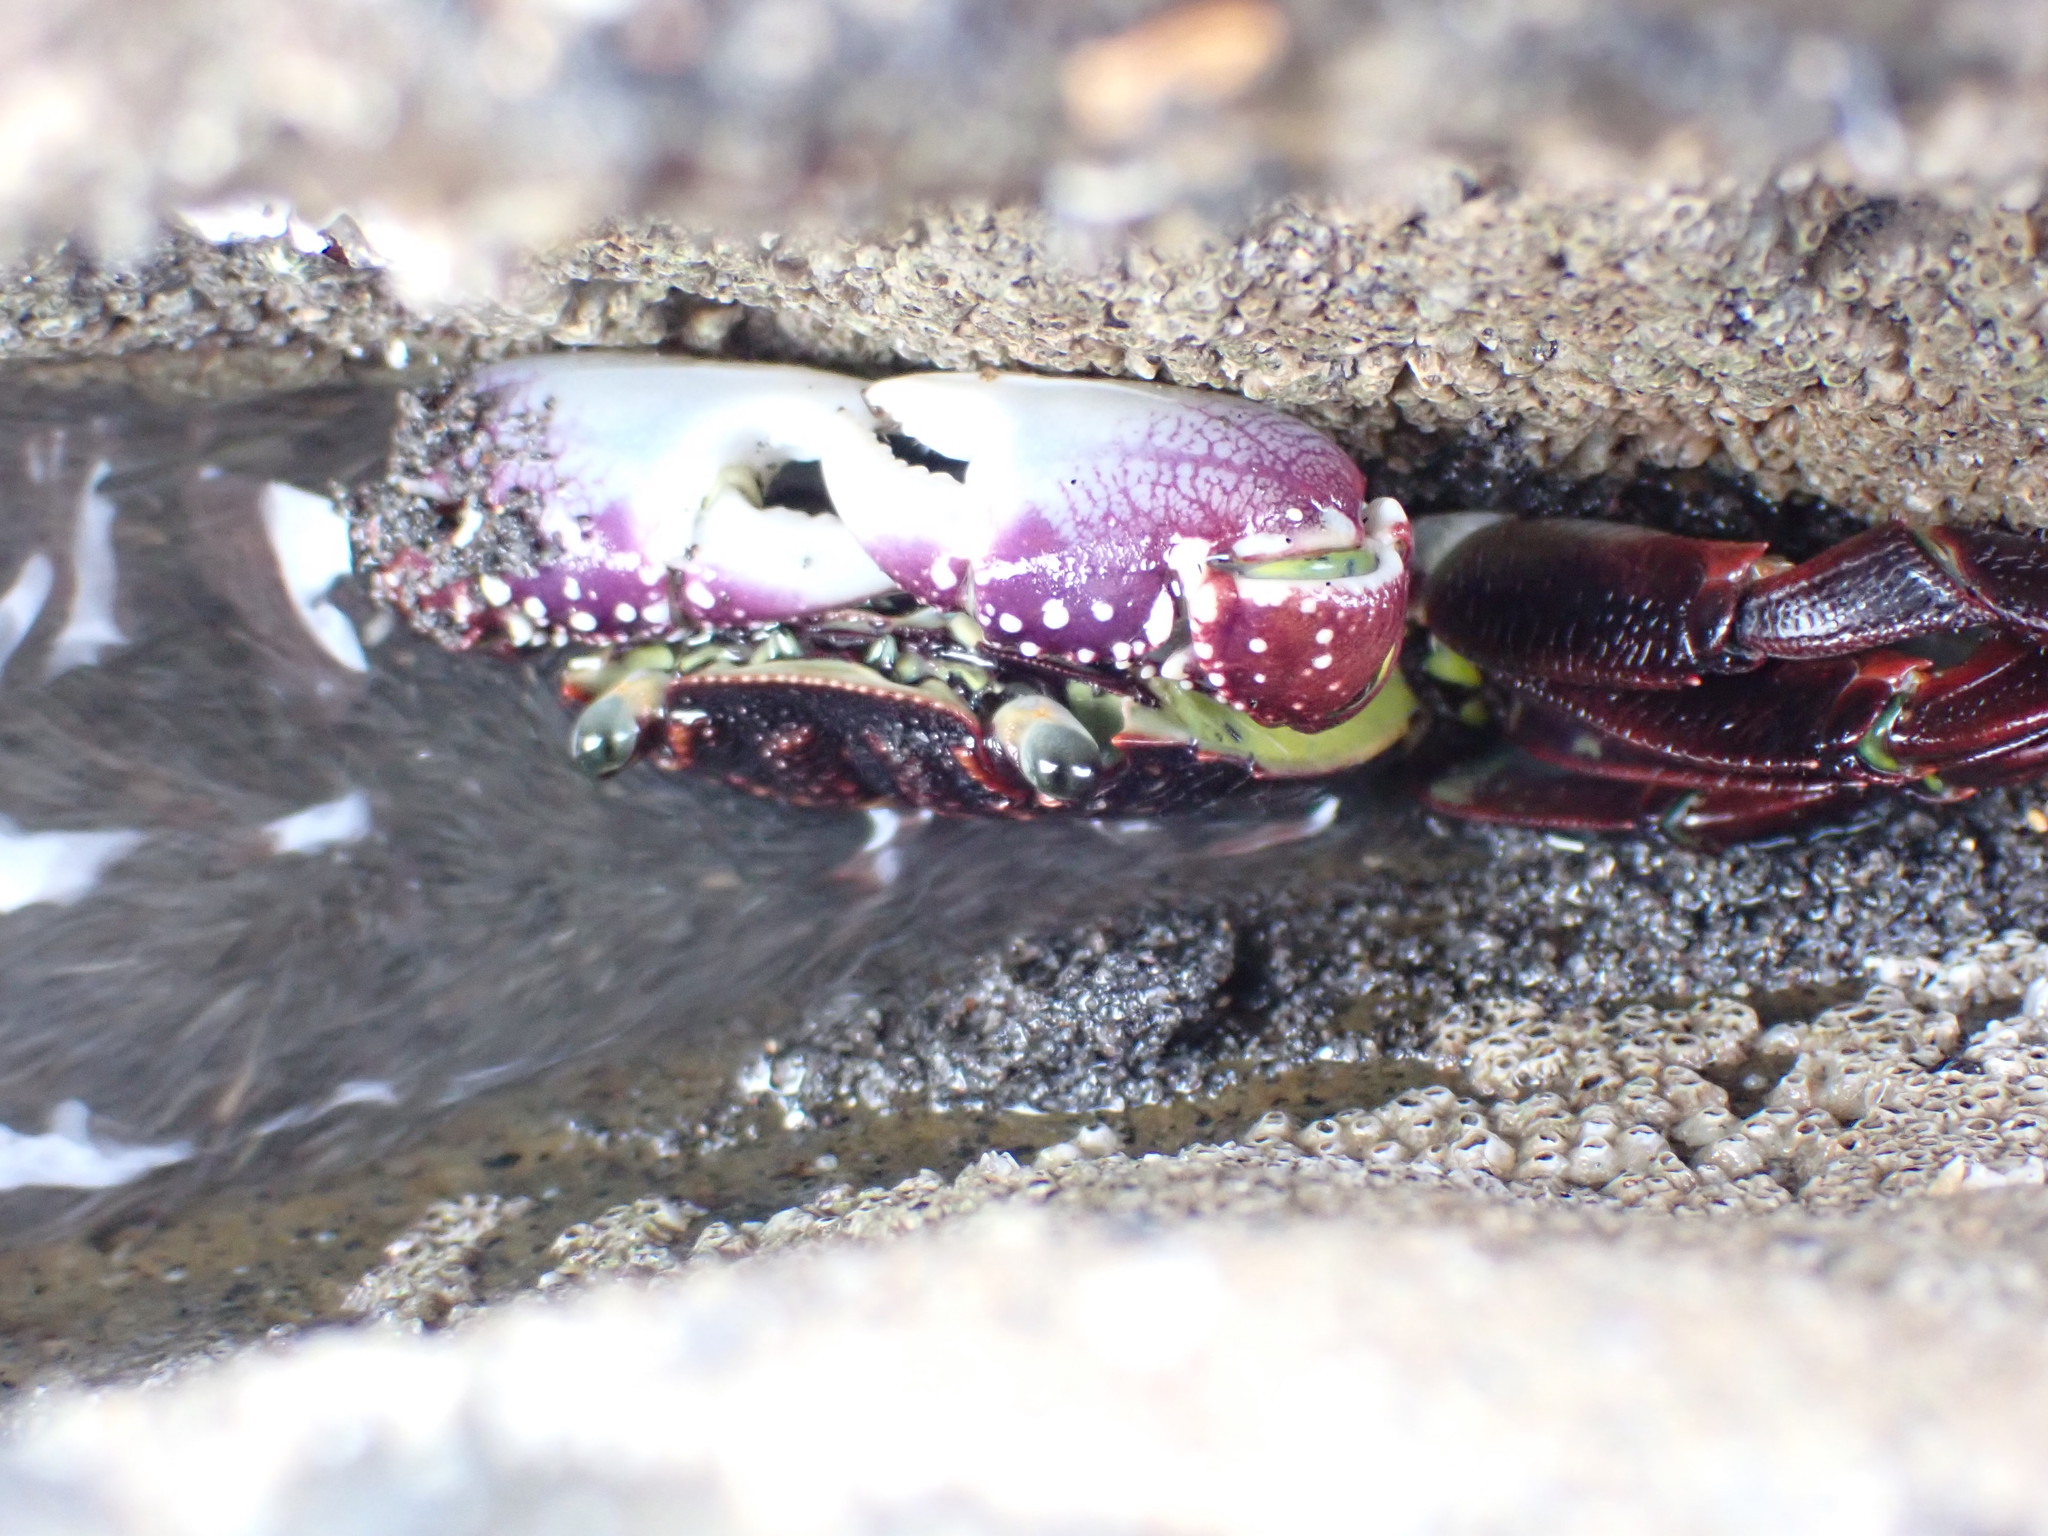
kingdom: Animalia
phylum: Arthropoda
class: Malacostraca
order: Decapoda
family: Grapsidae
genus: Leptograpsus
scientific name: Leptograpsus variegatus
